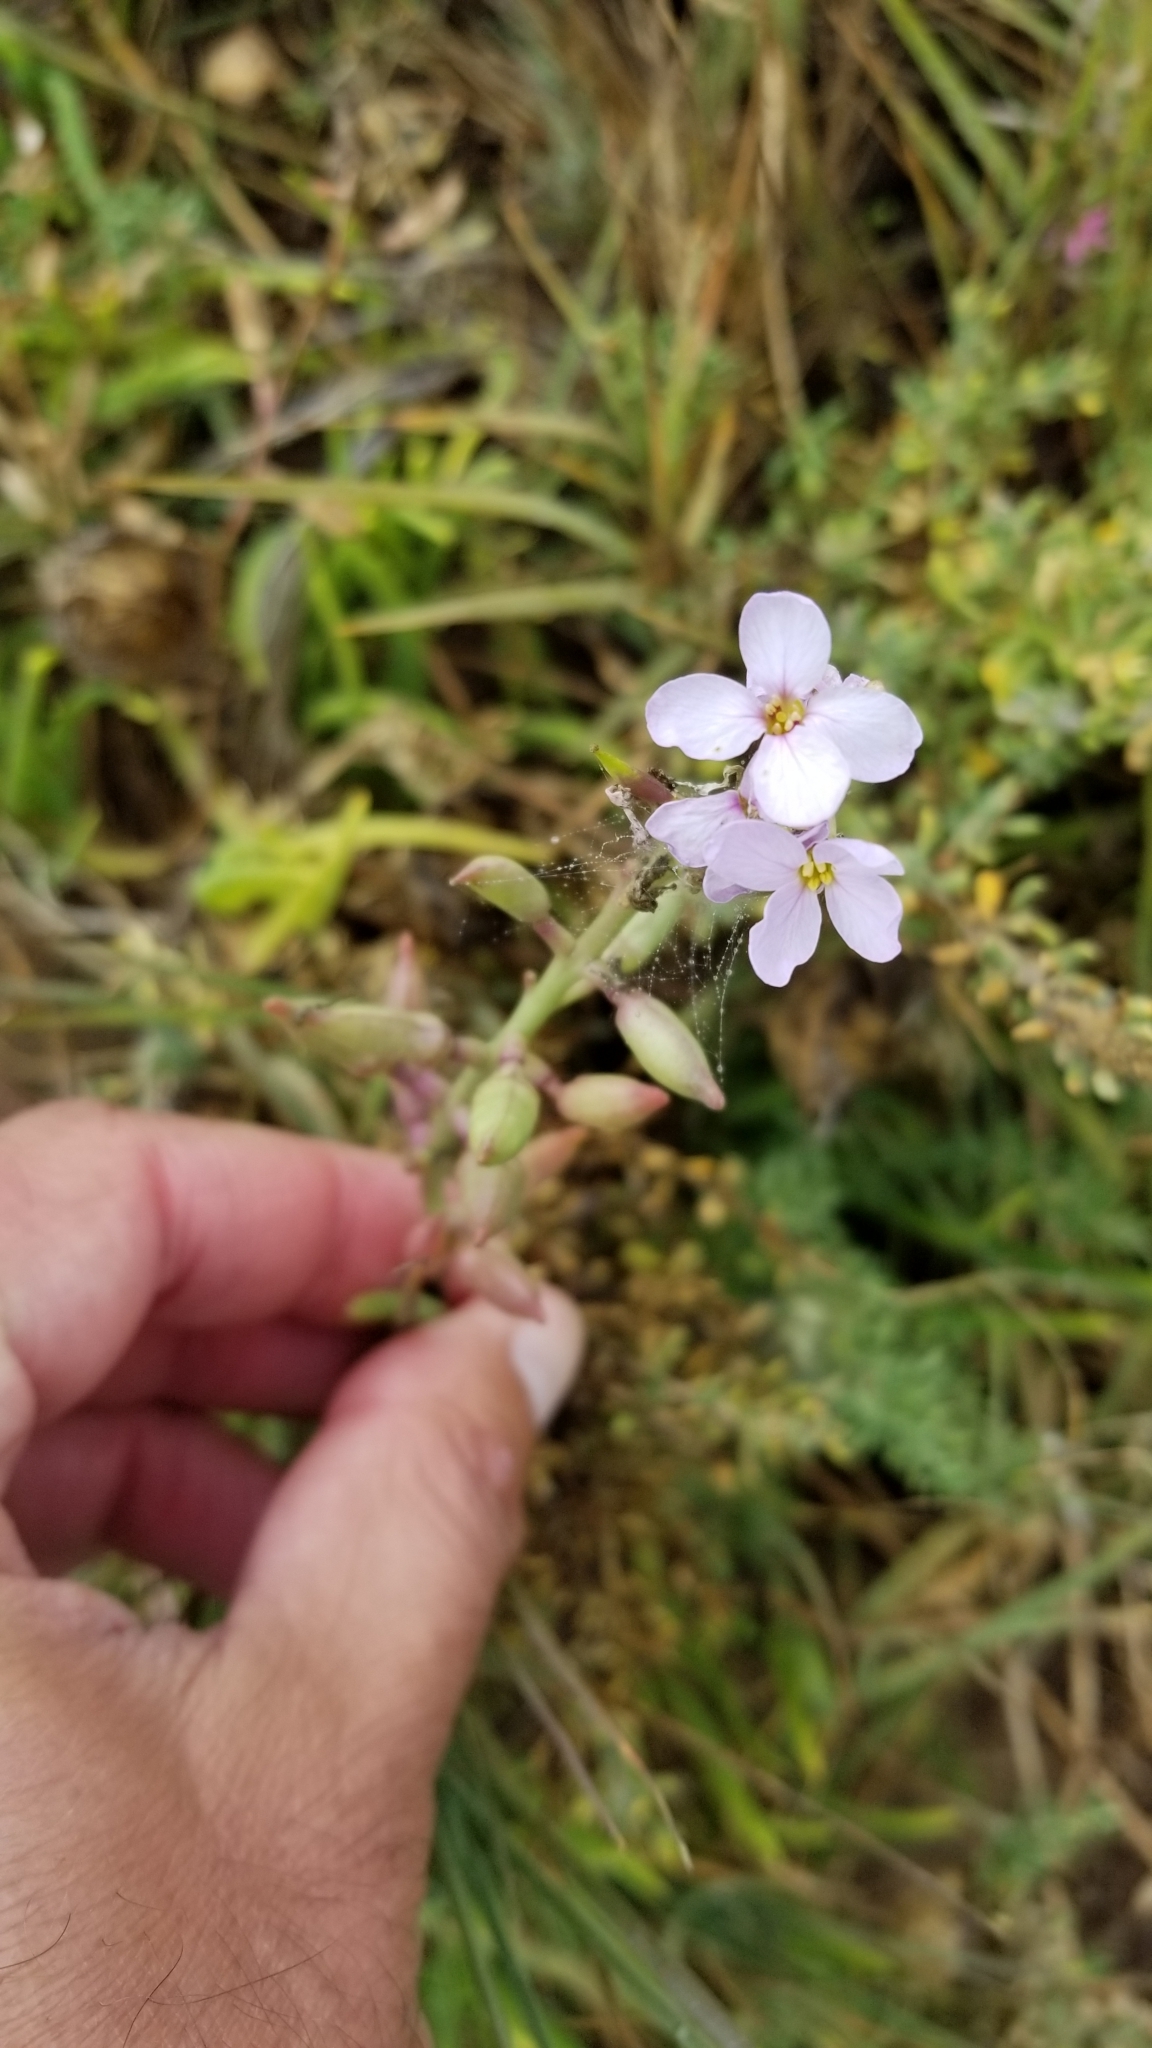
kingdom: Plantae
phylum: Tracheophyta
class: Magnoliopsida
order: Brassicales
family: Brassicaceae
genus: Cakile
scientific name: Cakile maritima
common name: Sea rocket
